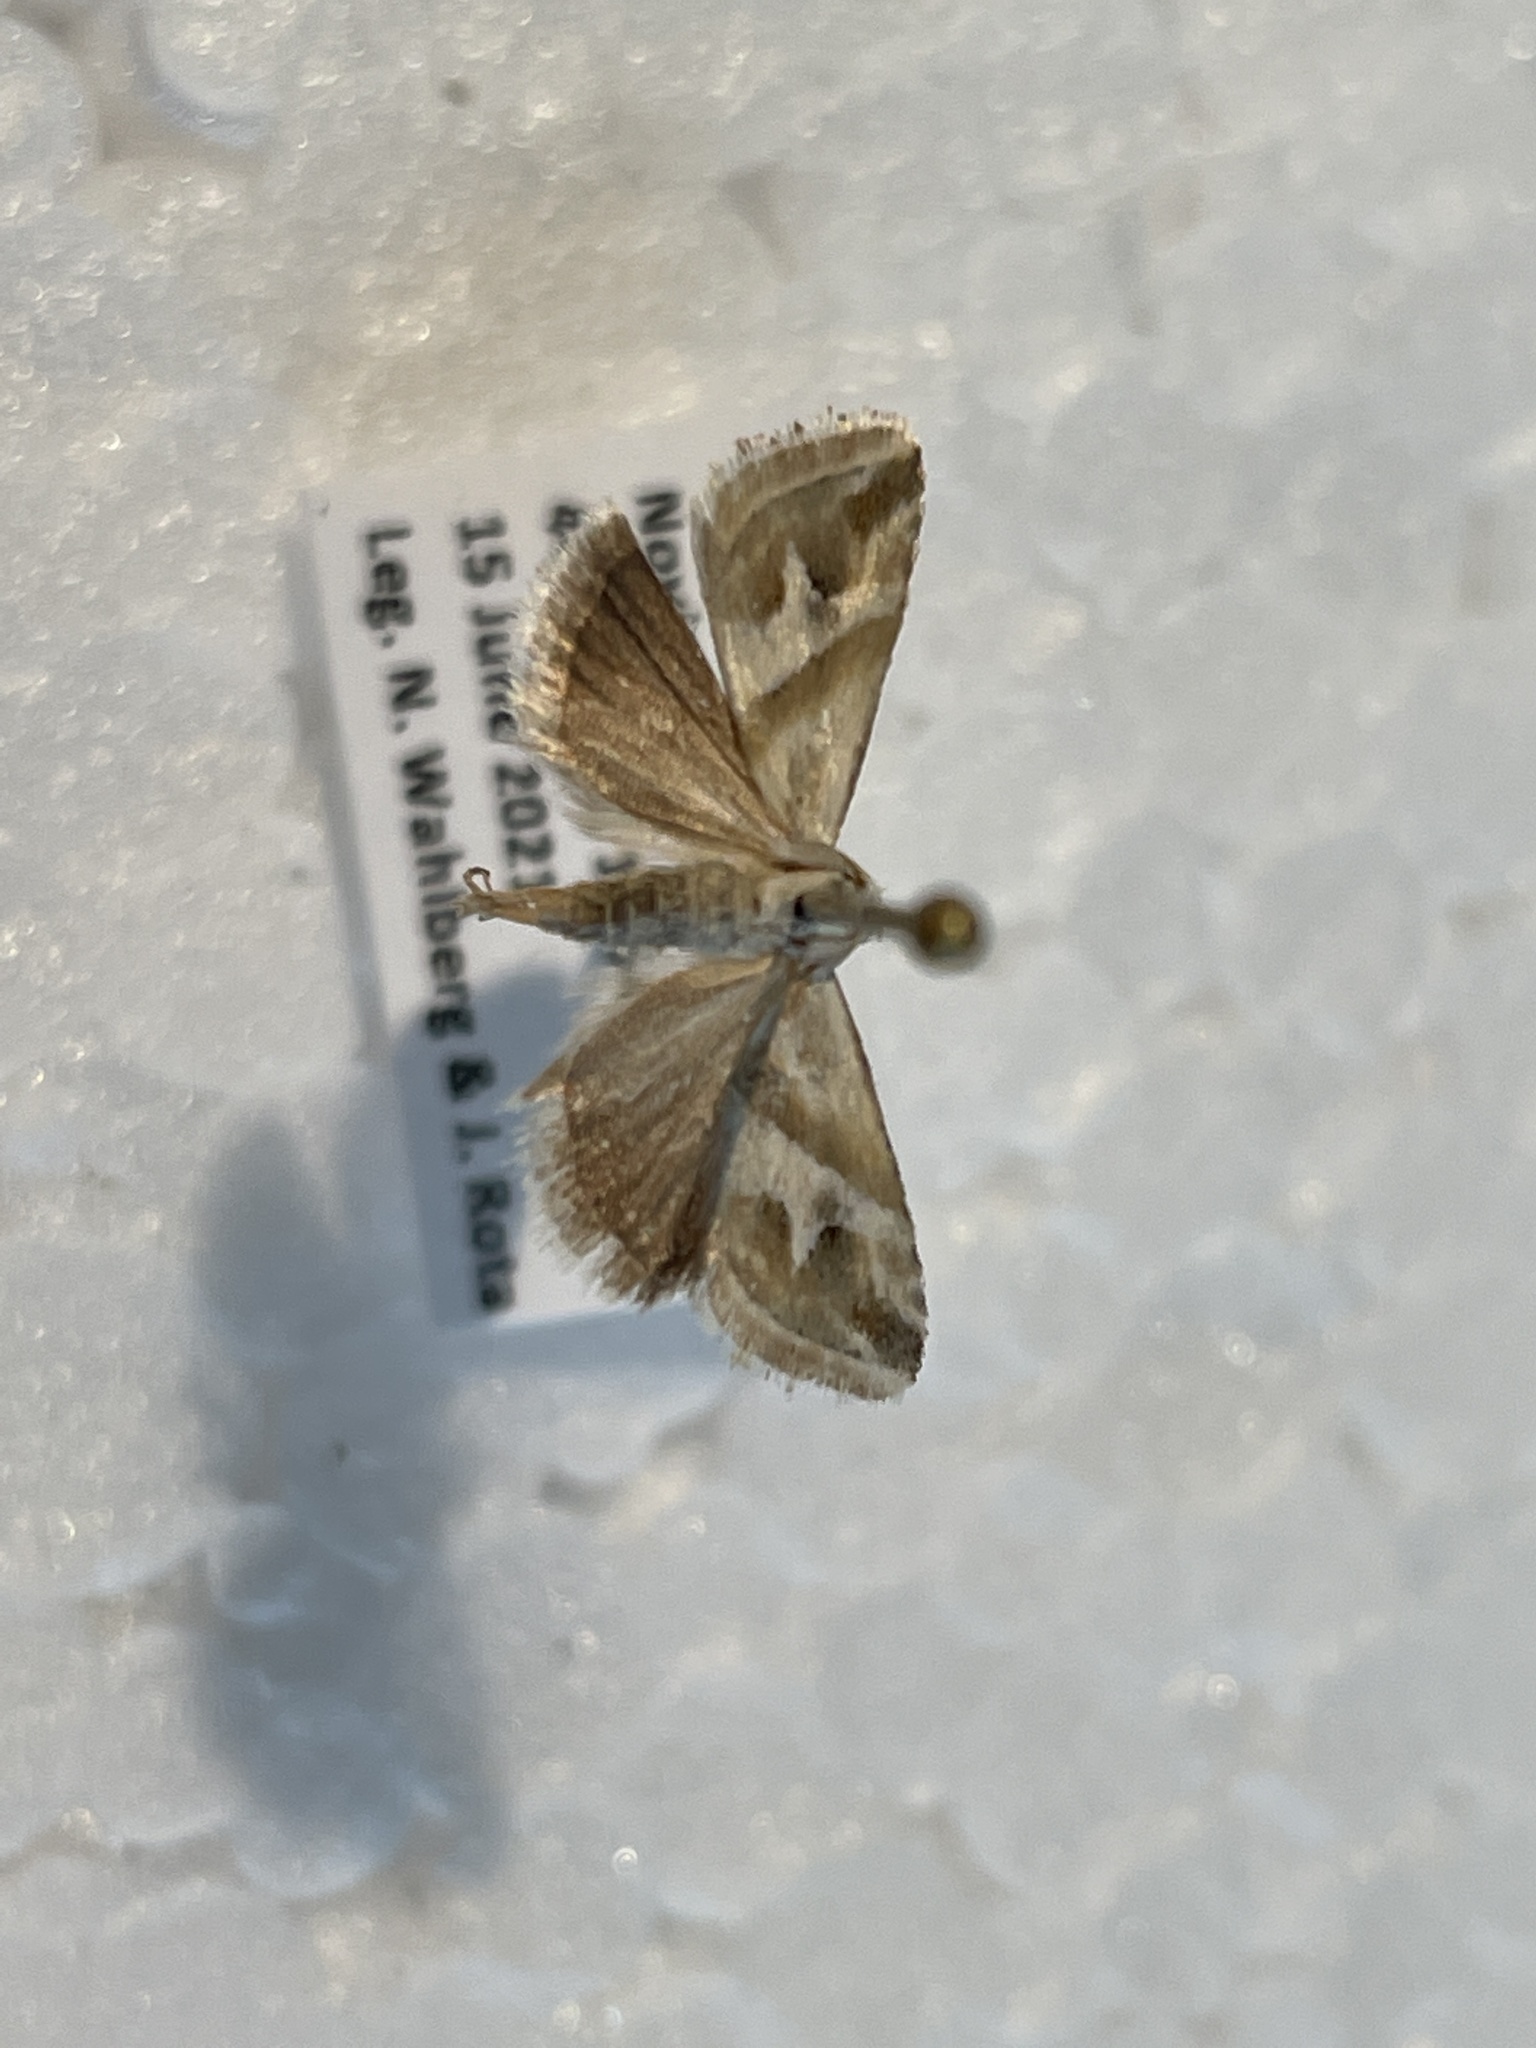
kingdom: Animalia
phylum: Arthropoda
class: Insecta
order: Lepidoptera
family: Noctuidae
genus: Eublemma
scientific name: Eublemma viridula
